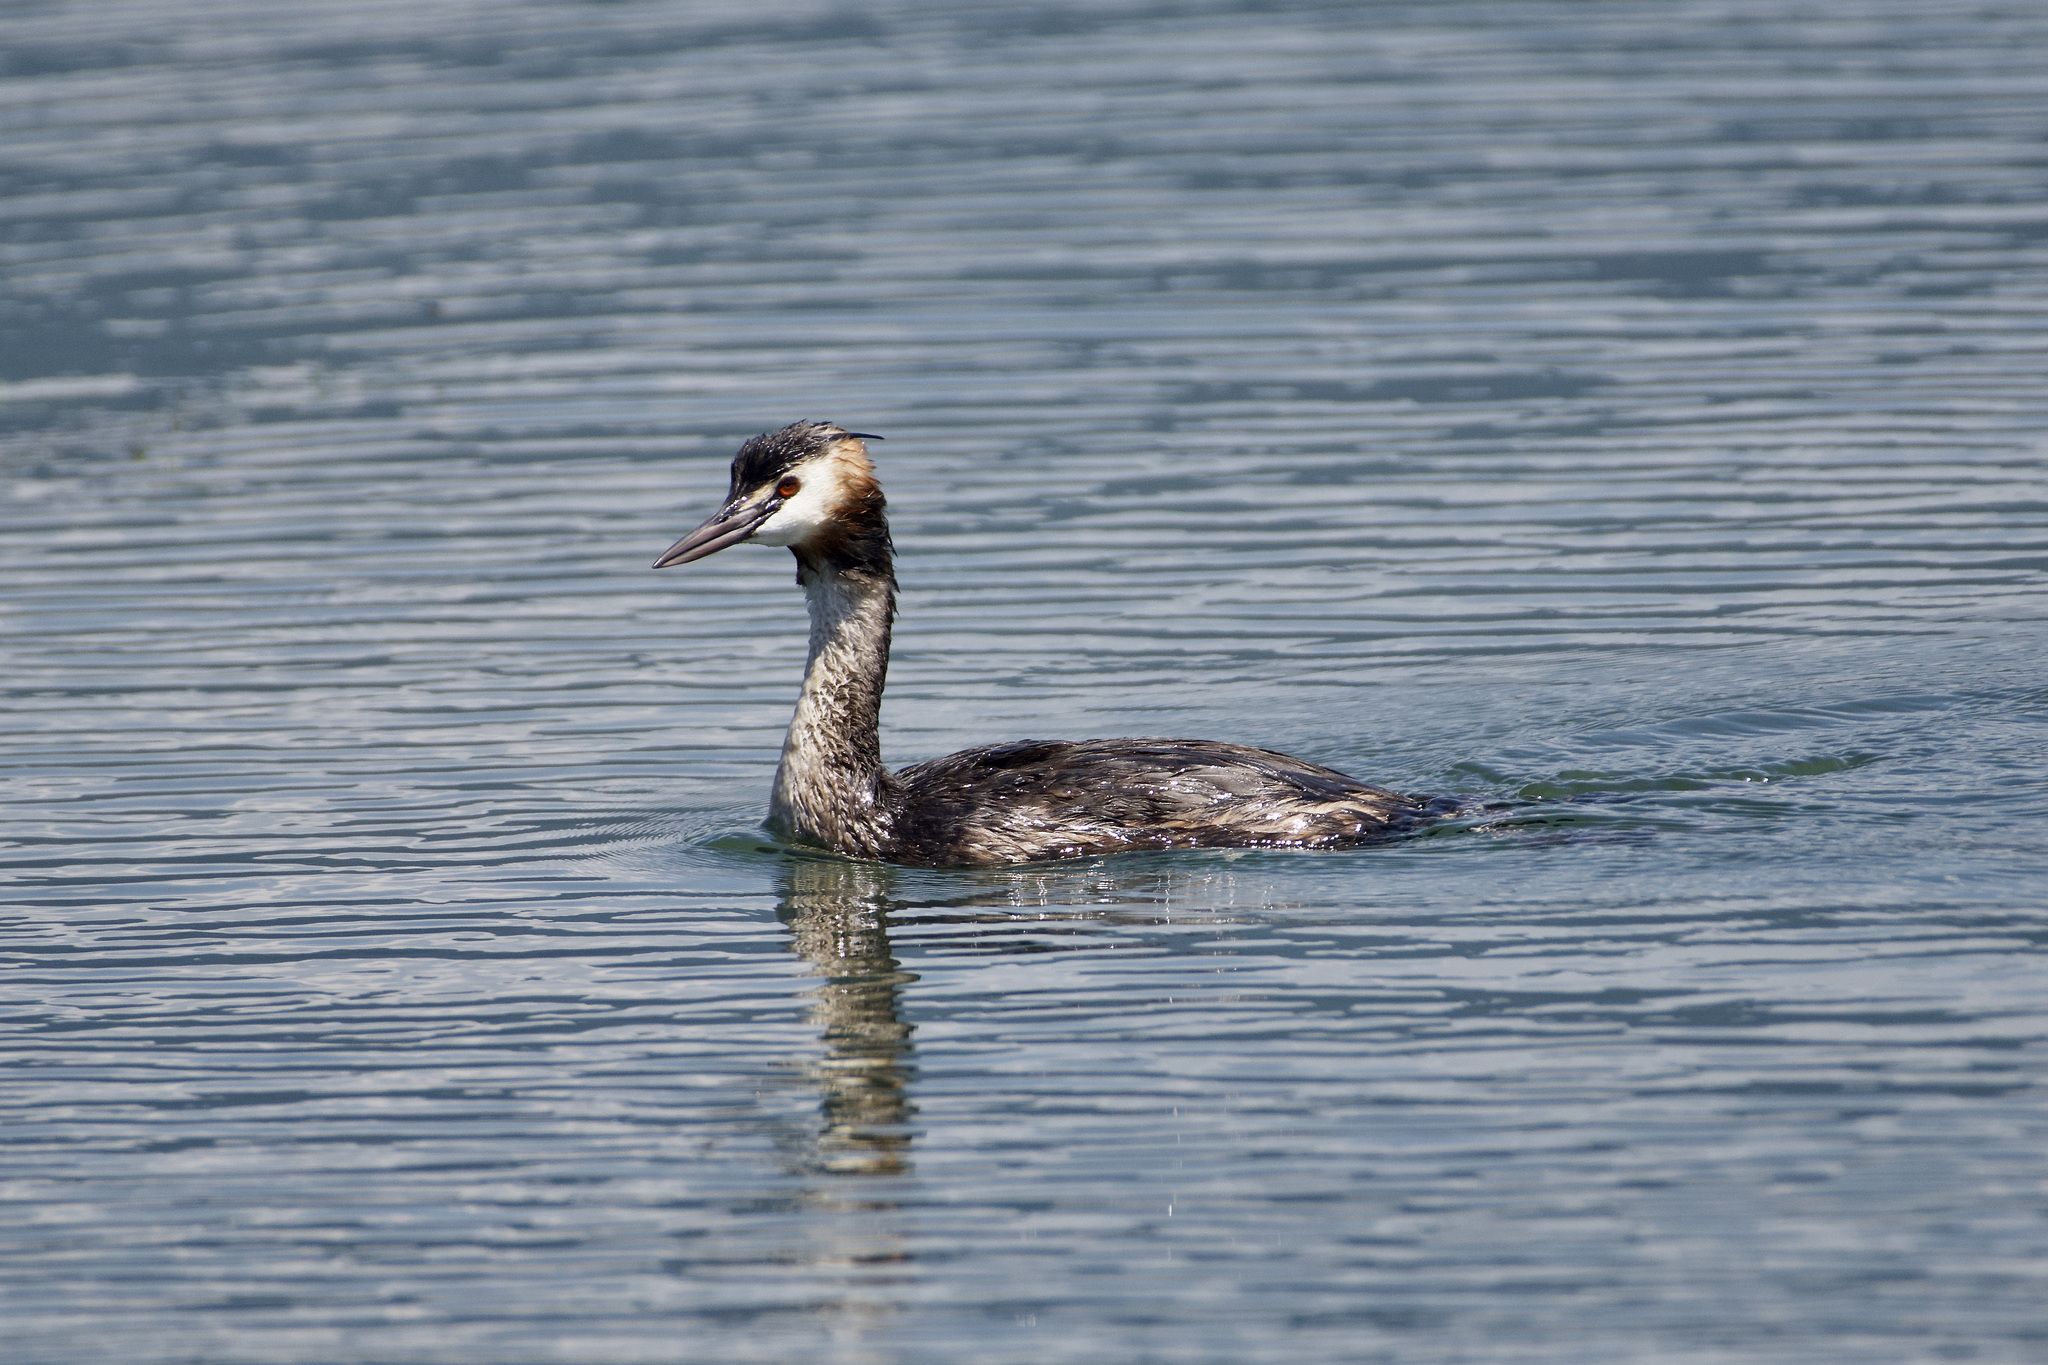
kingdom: Animalia
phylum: Chordata
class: Aves
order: Podicipediformes
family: Podicipedidae
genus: Podiceps
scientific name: Podiceps cristatus
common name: Great crested grebe
